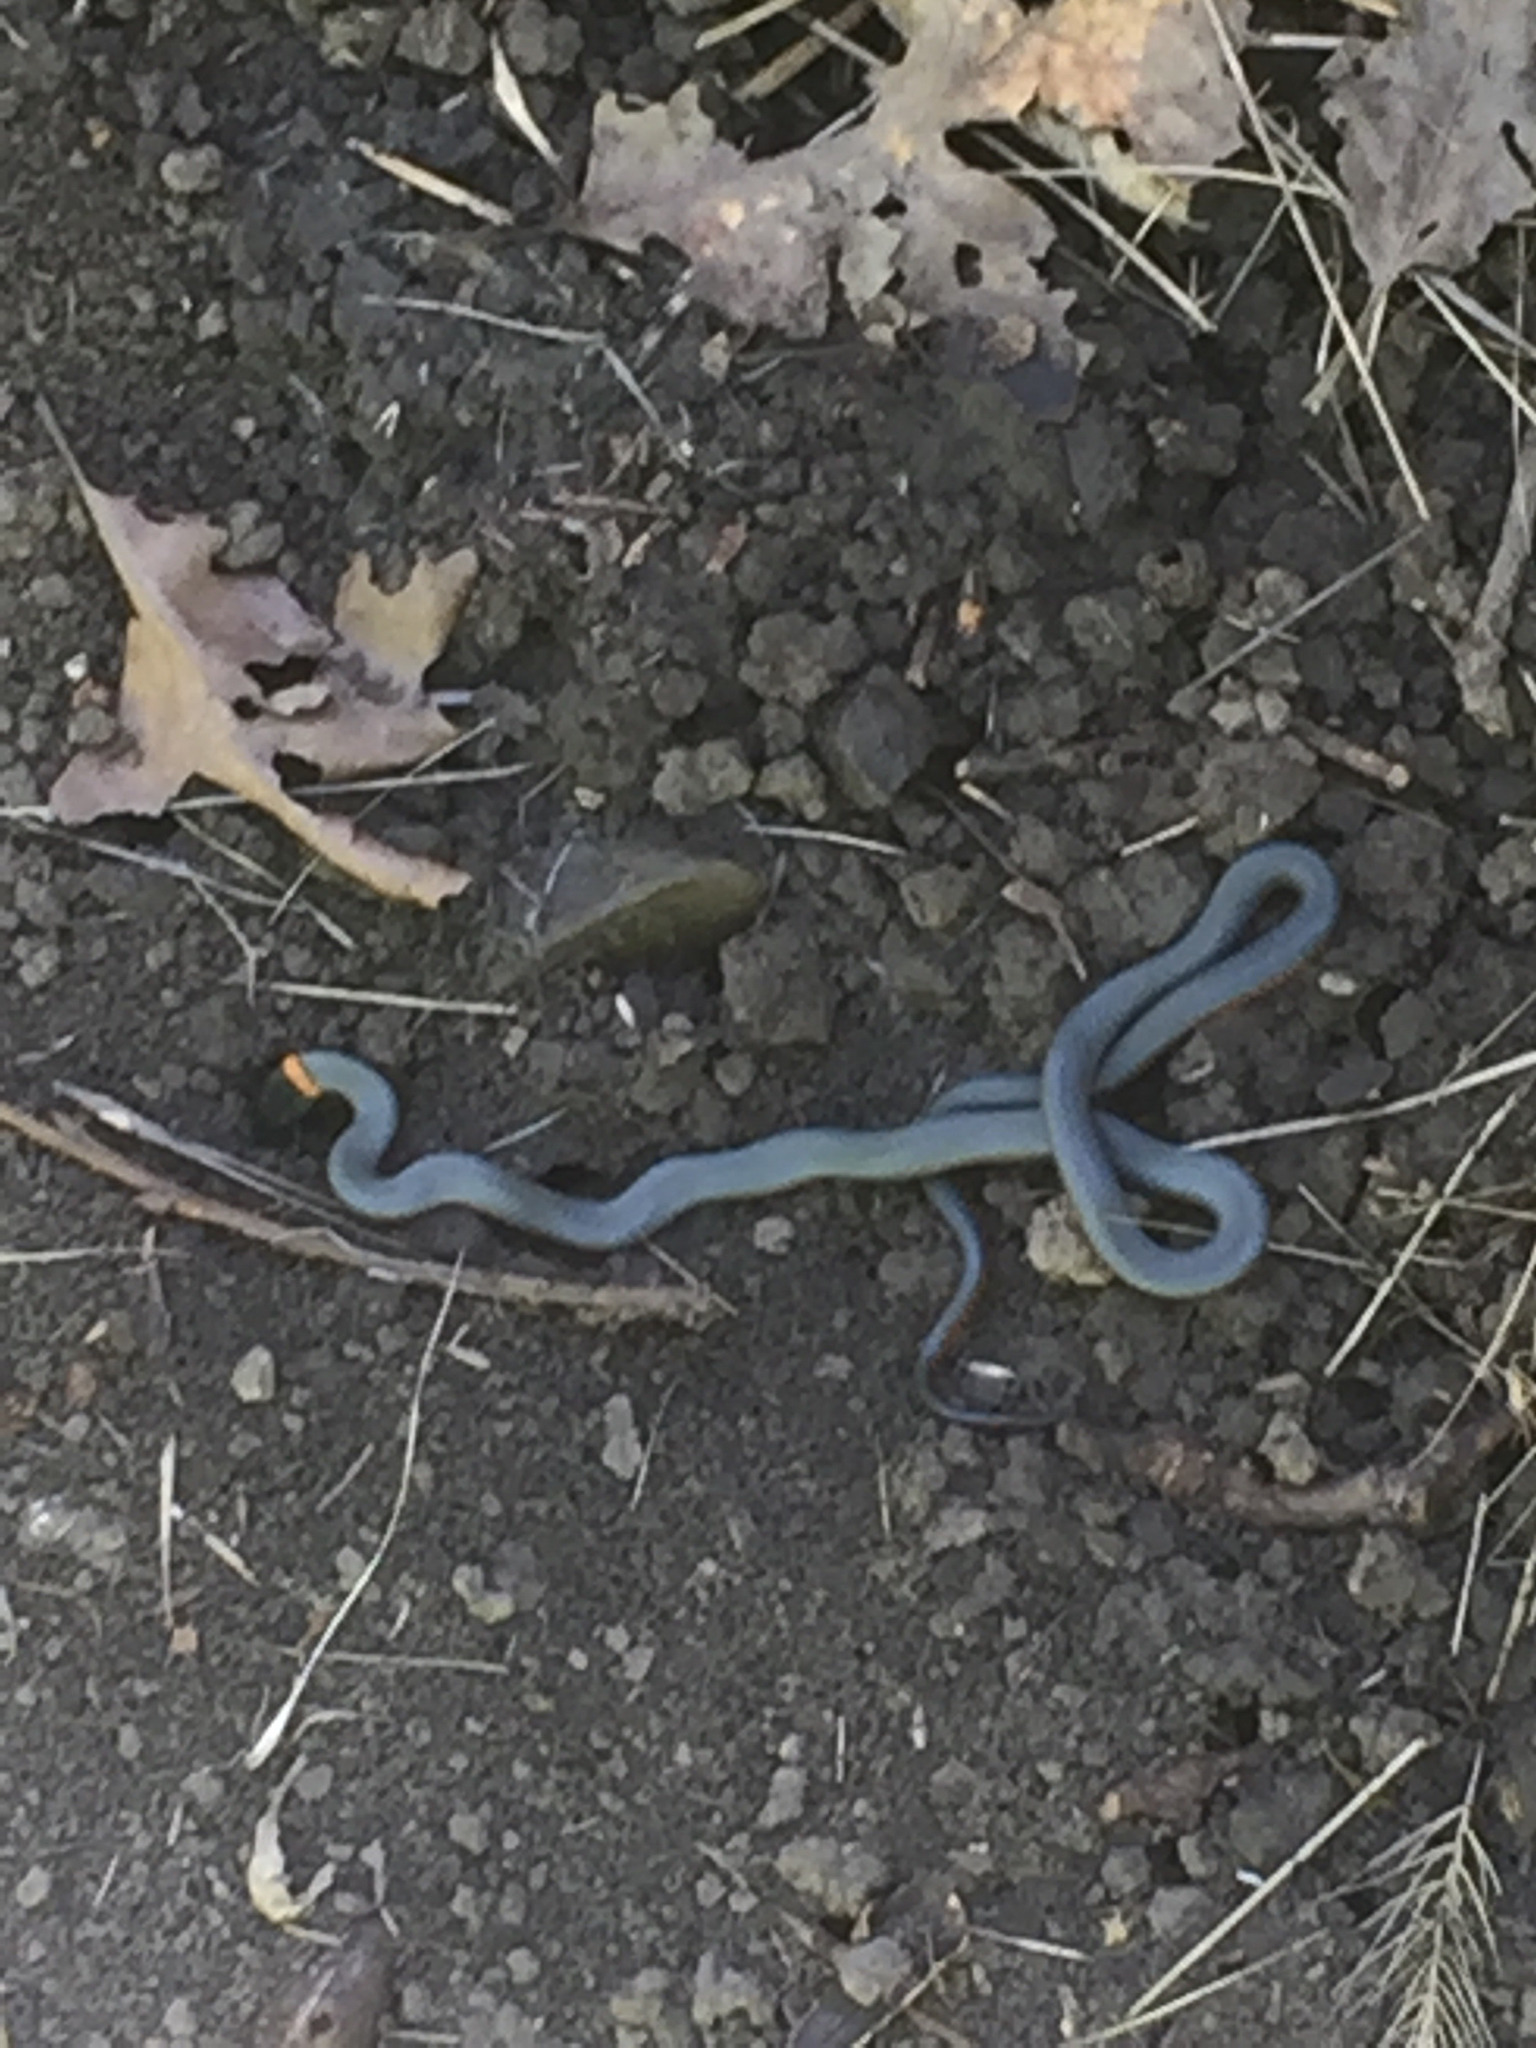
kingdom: Animalia
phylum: Chordata
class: Squamata
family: Colubridae
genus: Diadophis
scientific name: Diadophis punctatus
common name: Ringneck snake
